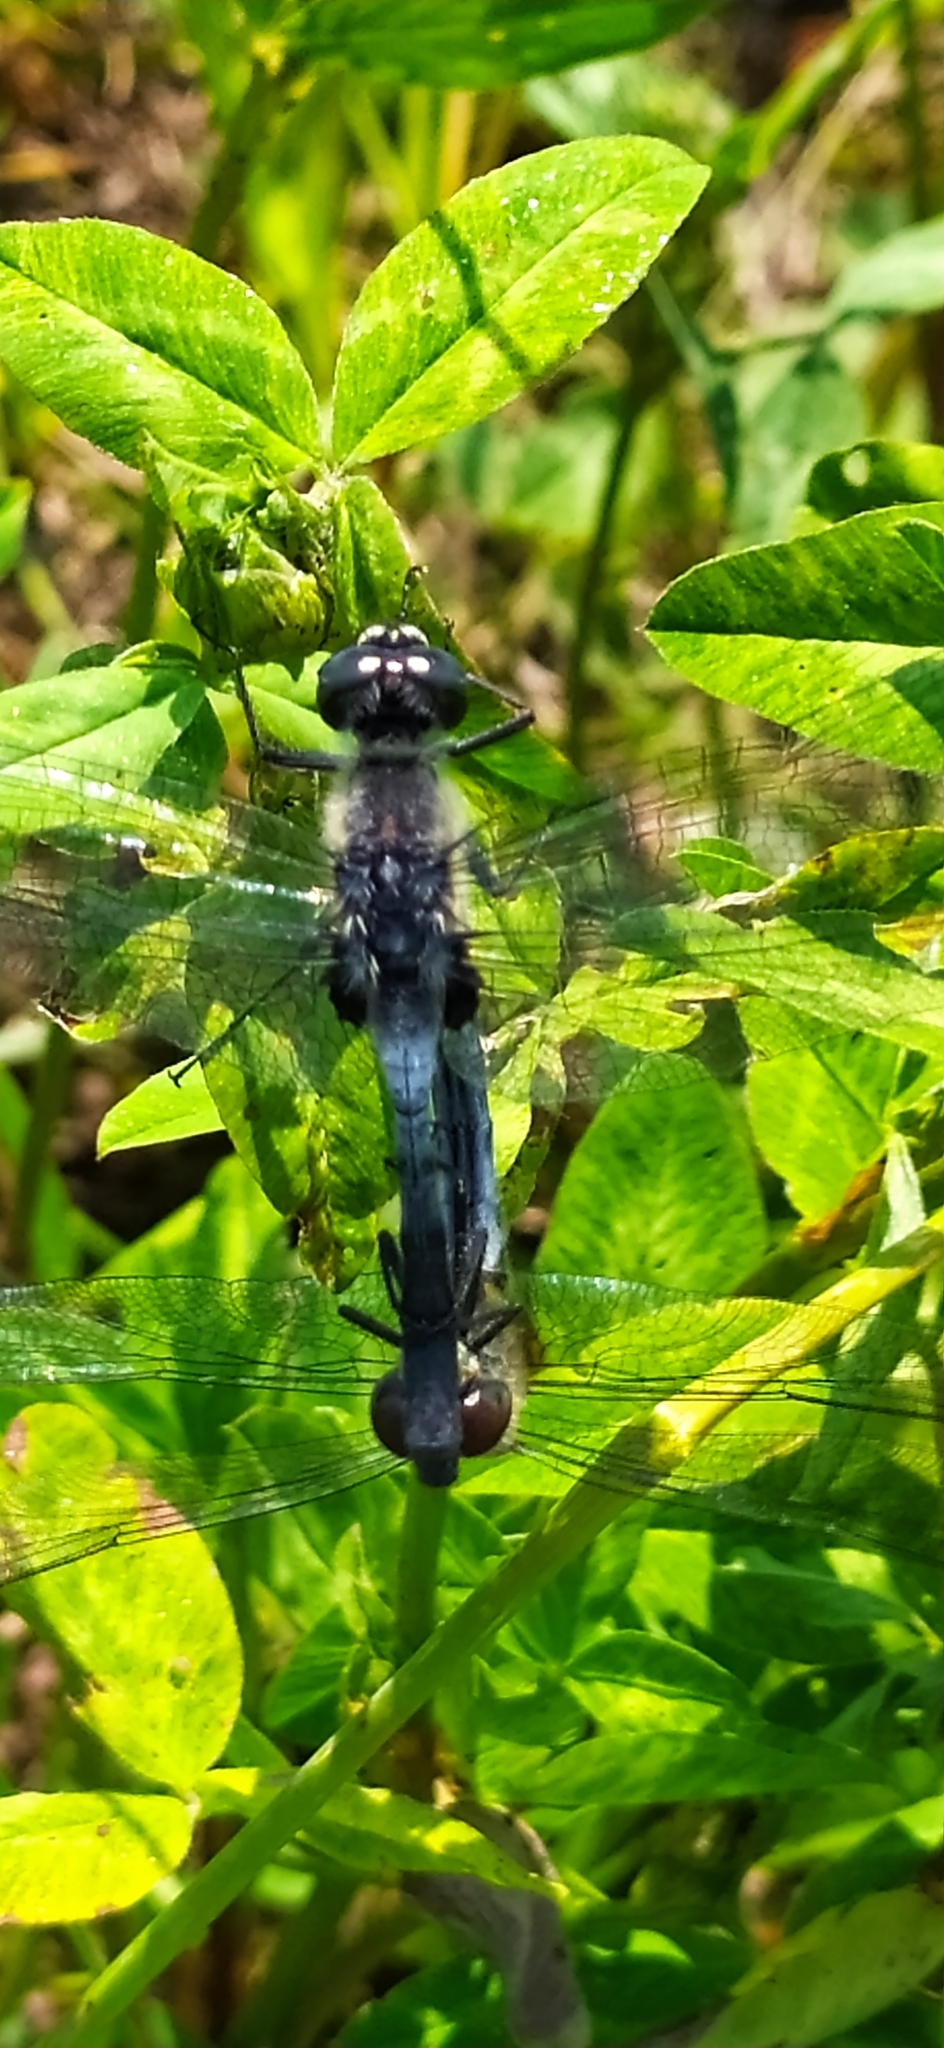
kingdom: Animalia
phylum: Arthropoda
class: Insecta
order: Odonata
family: Libellulidae
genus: Leucorrhinia
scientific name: Leucorrhinia albifrons
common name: Dark whiteface
